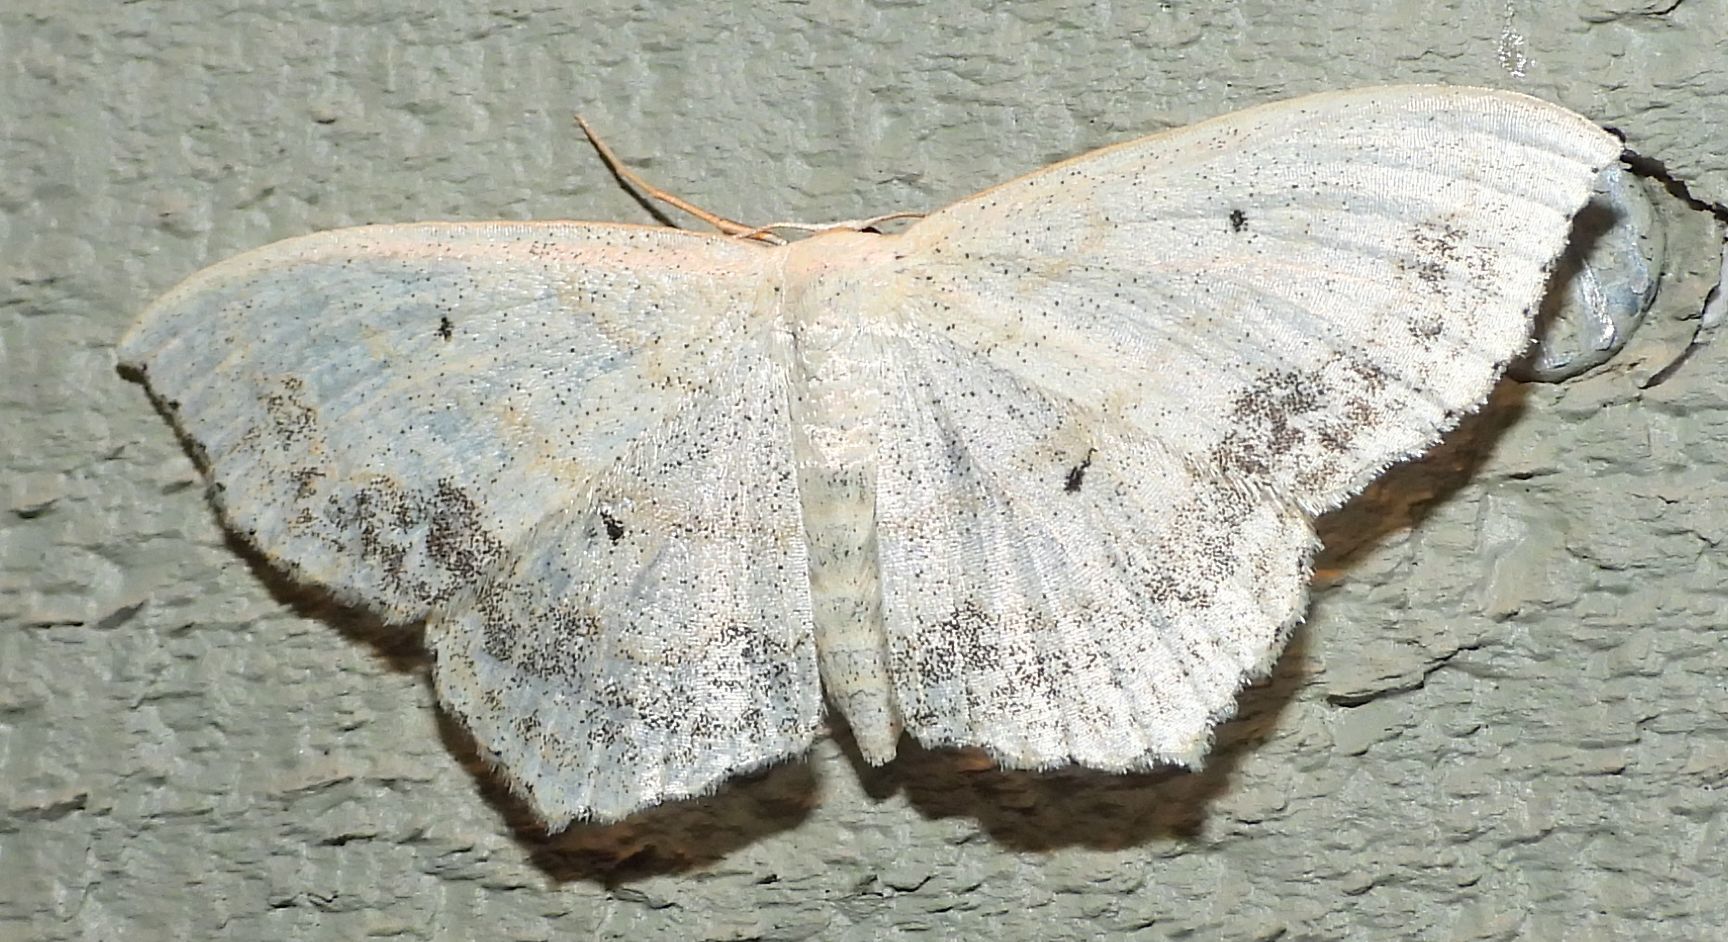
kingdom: Animalia
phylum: Arthropoda
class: Insecta
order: Lepidoptera
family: Geometridae
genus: Scopula
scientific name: Scopula limboundata
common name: Large lace border
